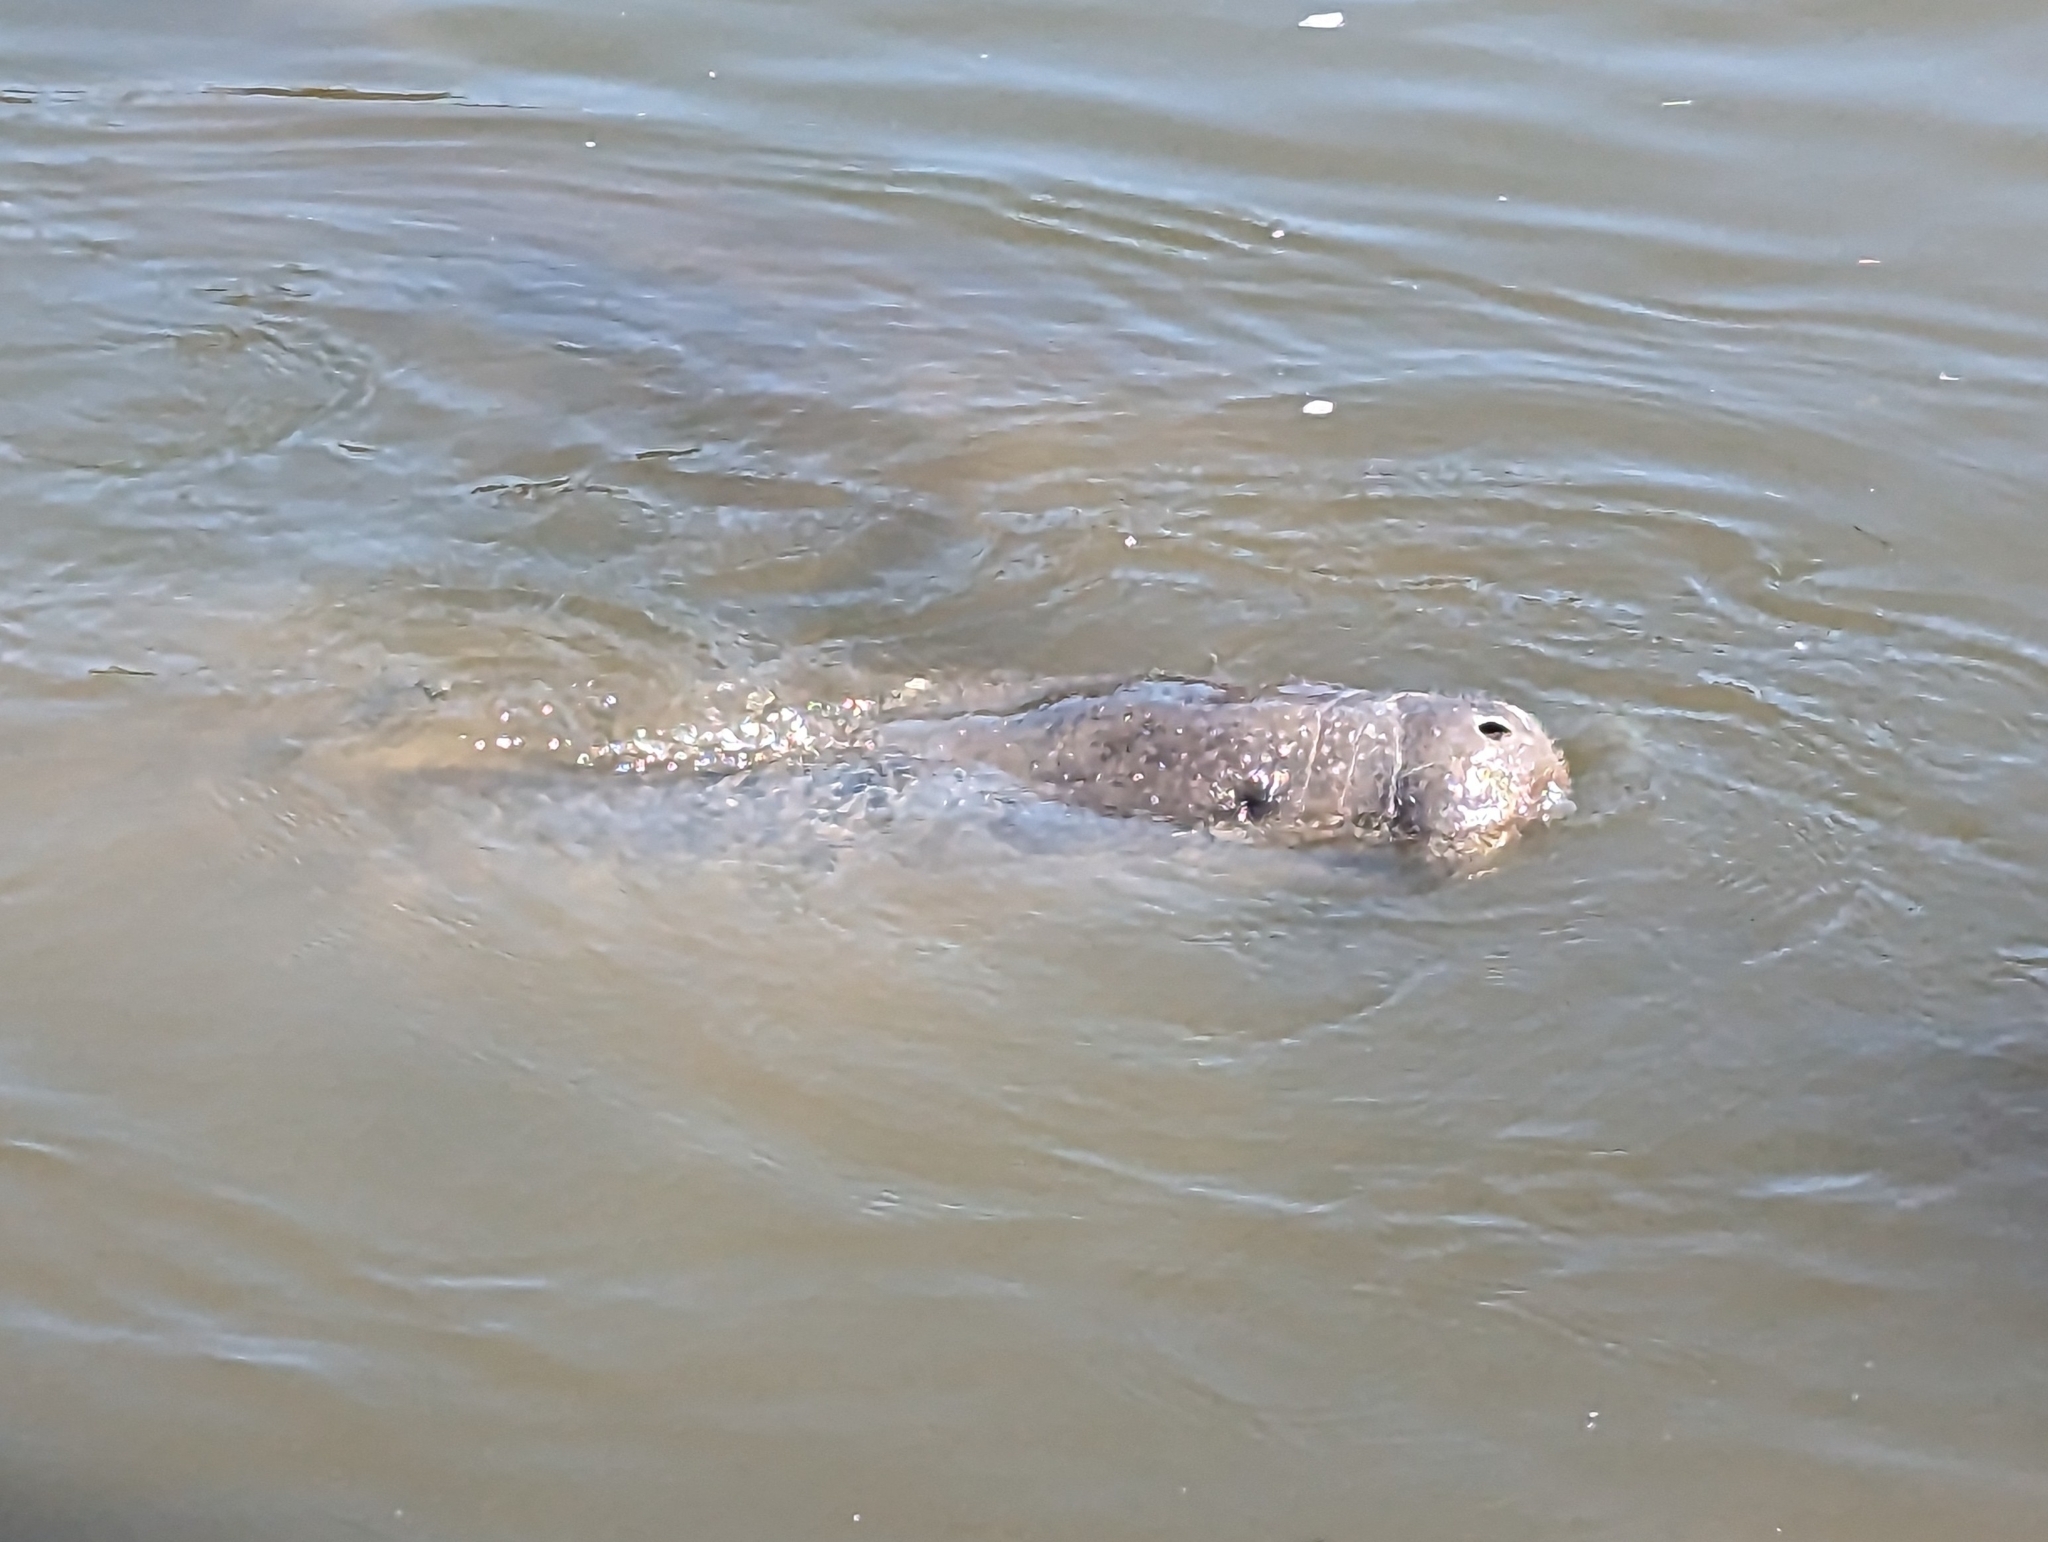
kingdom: Animalia
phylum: Chordata
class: Mammalia
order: Sirenia
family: Trichechidae
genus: Trichechus
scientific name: Trichechus manatus
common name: West indian manatee
